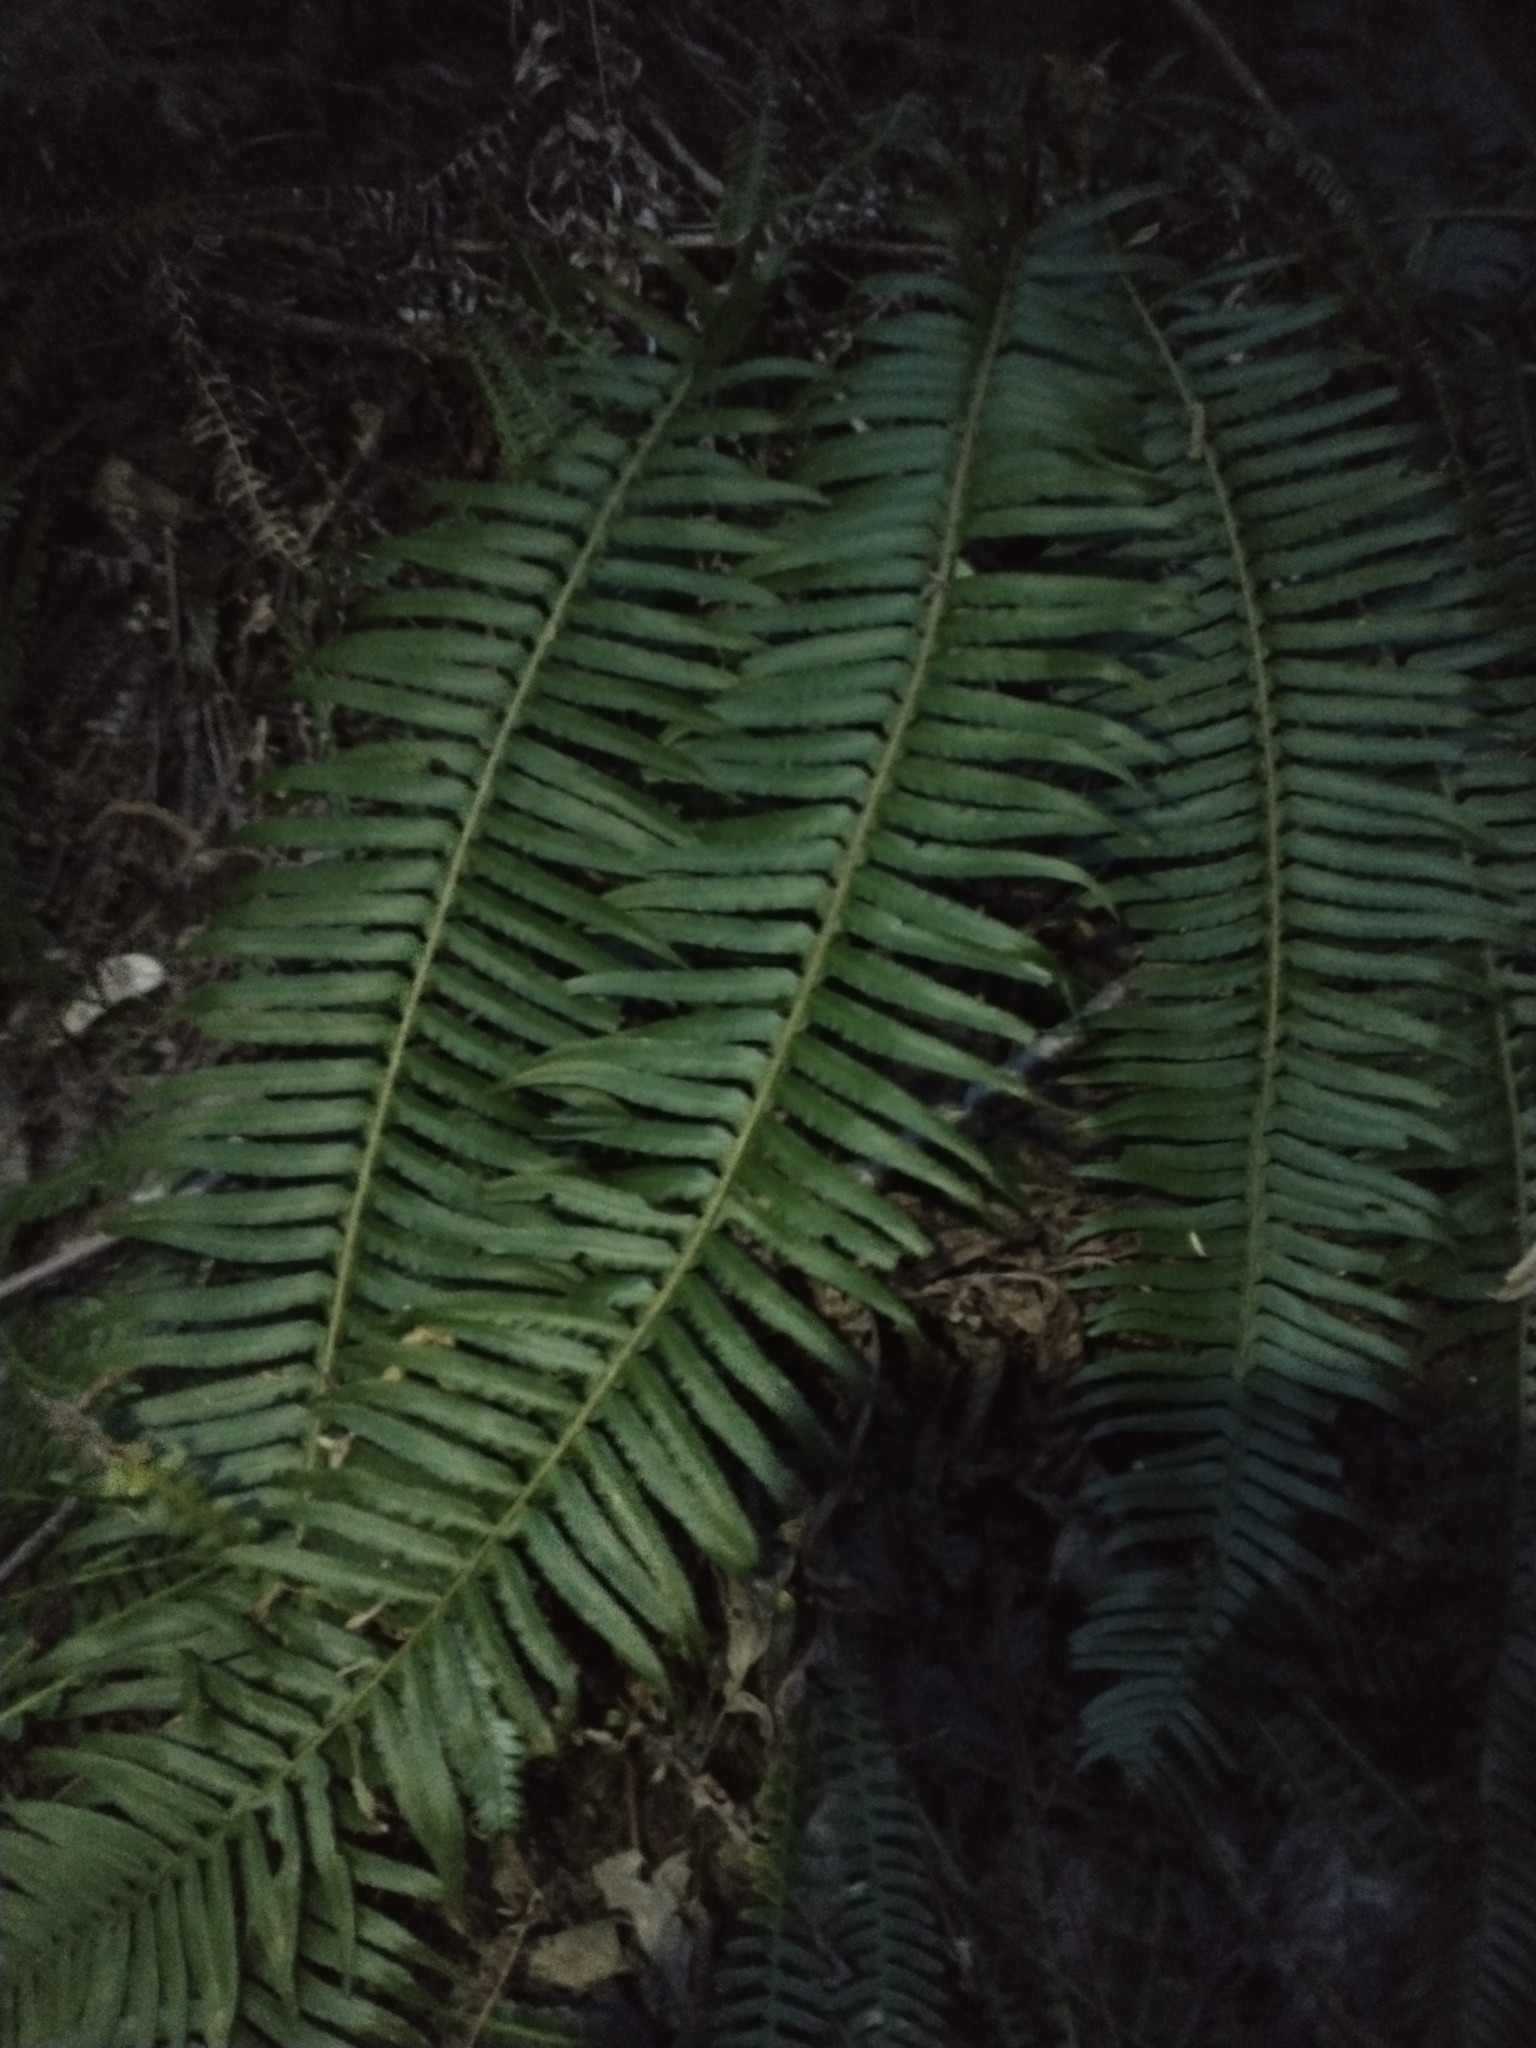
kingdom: Plantae
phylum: Tracheophyta
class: Polypodiopsida
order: Polypodiales
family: Dryopteridaceae
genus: Polystichum
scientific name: Polystichum munitum
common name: Western sword-fern
